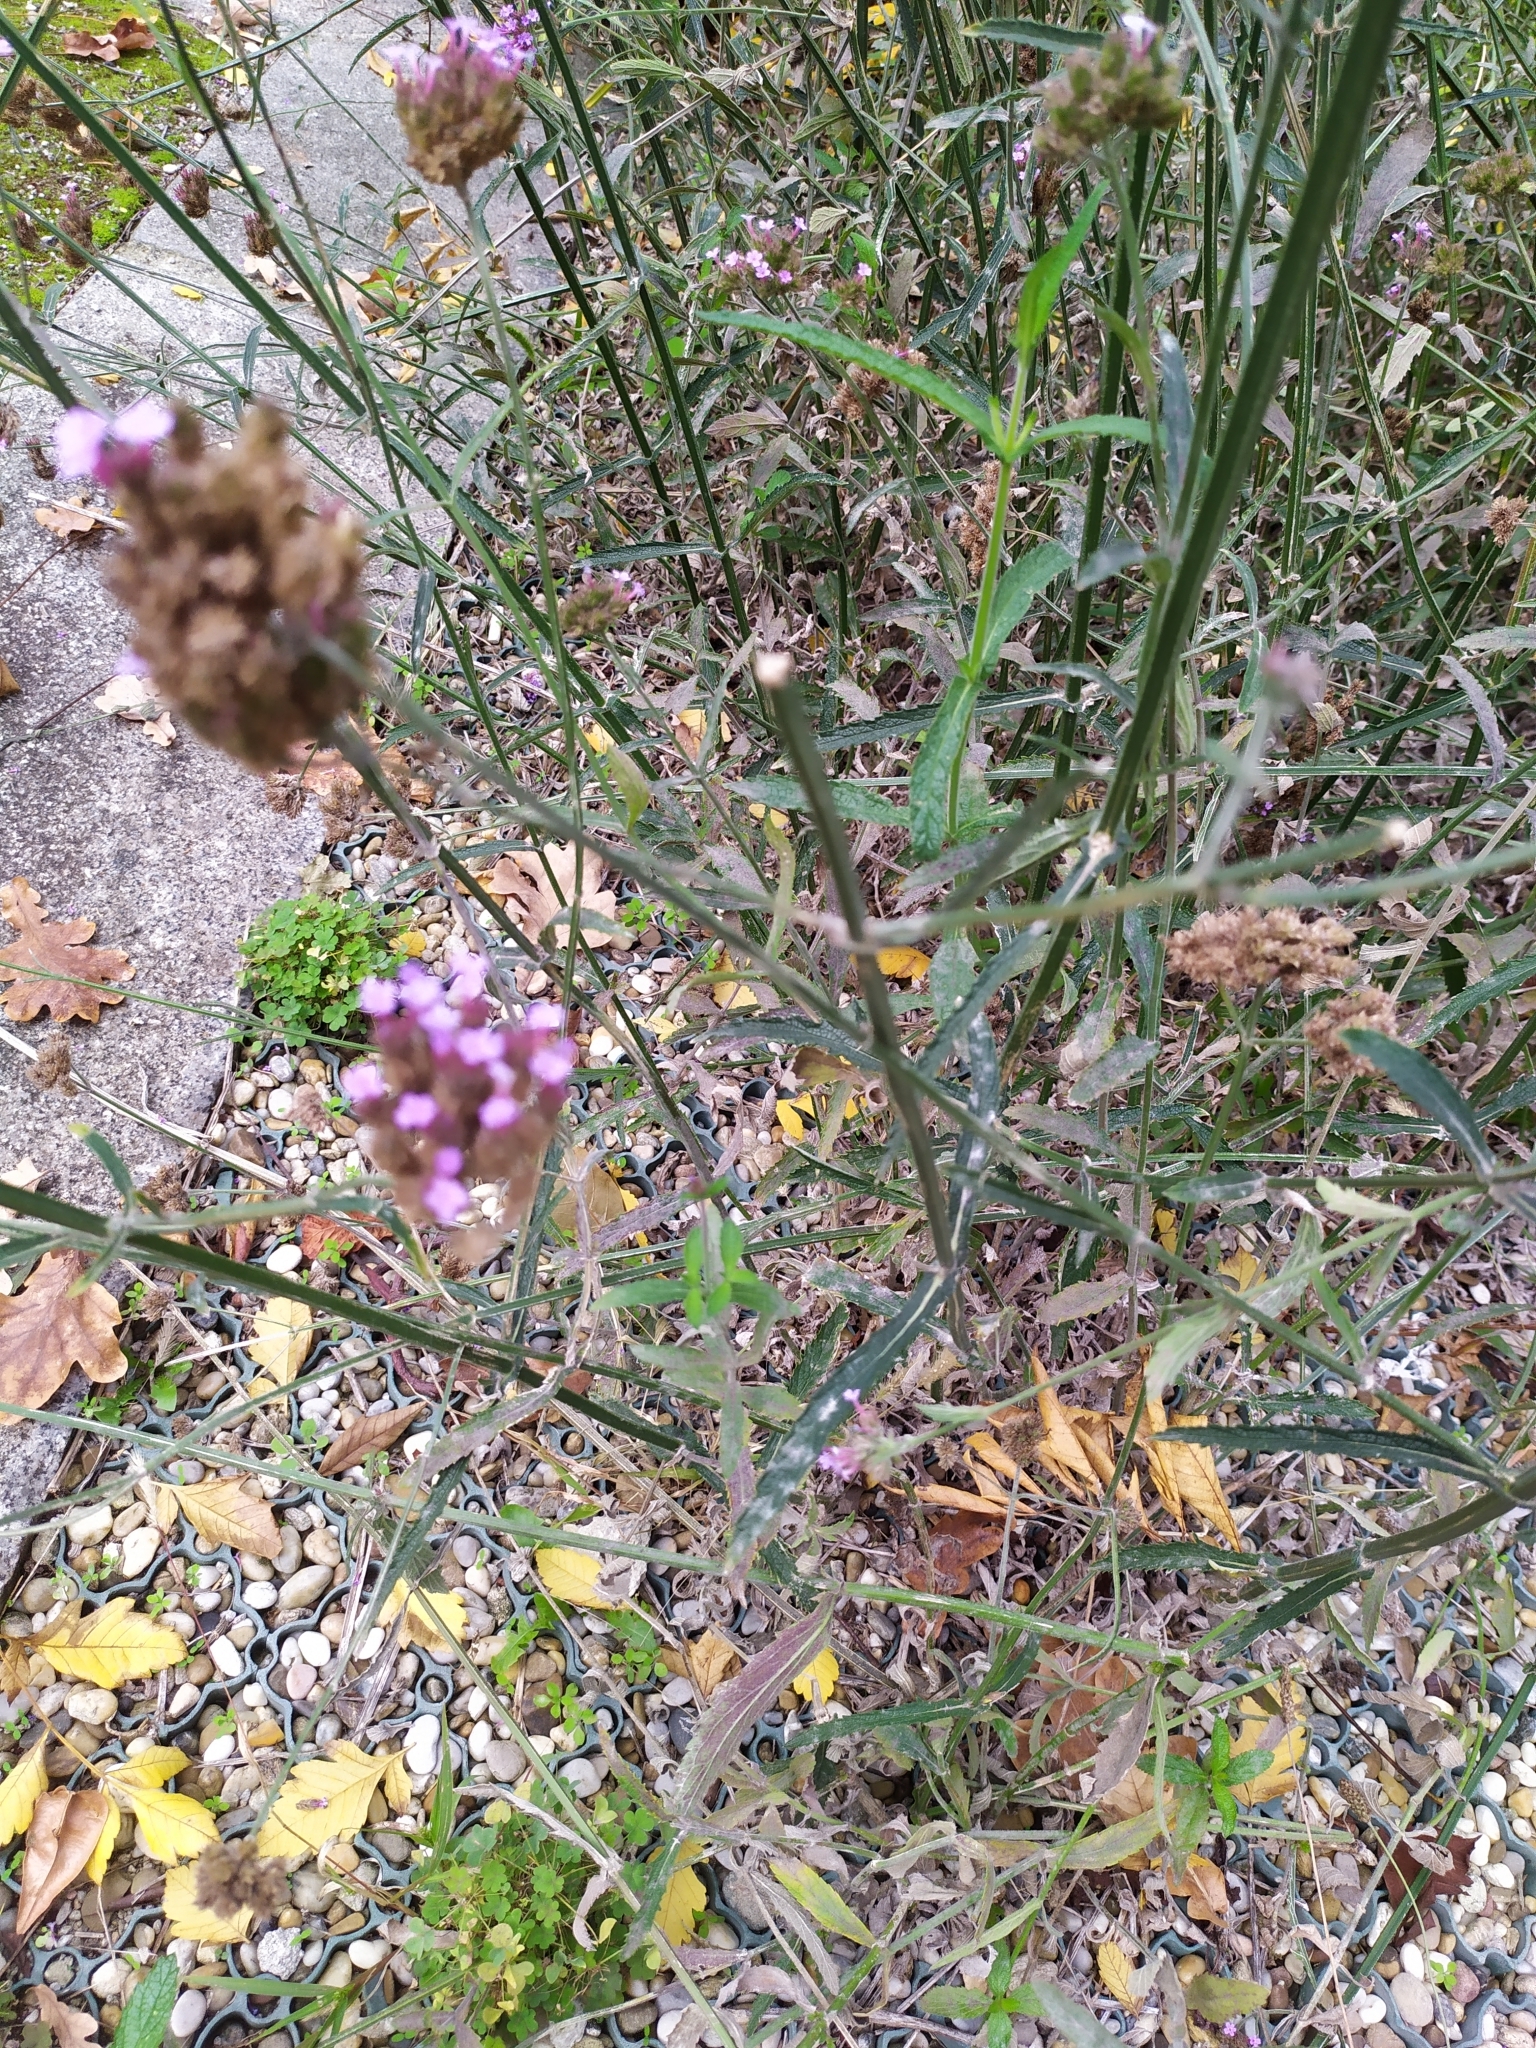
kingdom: Plantae
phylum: Tracheophyta
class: Magnoliopsida
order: Lamiales
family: Verbenaceae
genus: Verbena
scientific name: Verbena bonariensis
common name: Purpletop vervain
